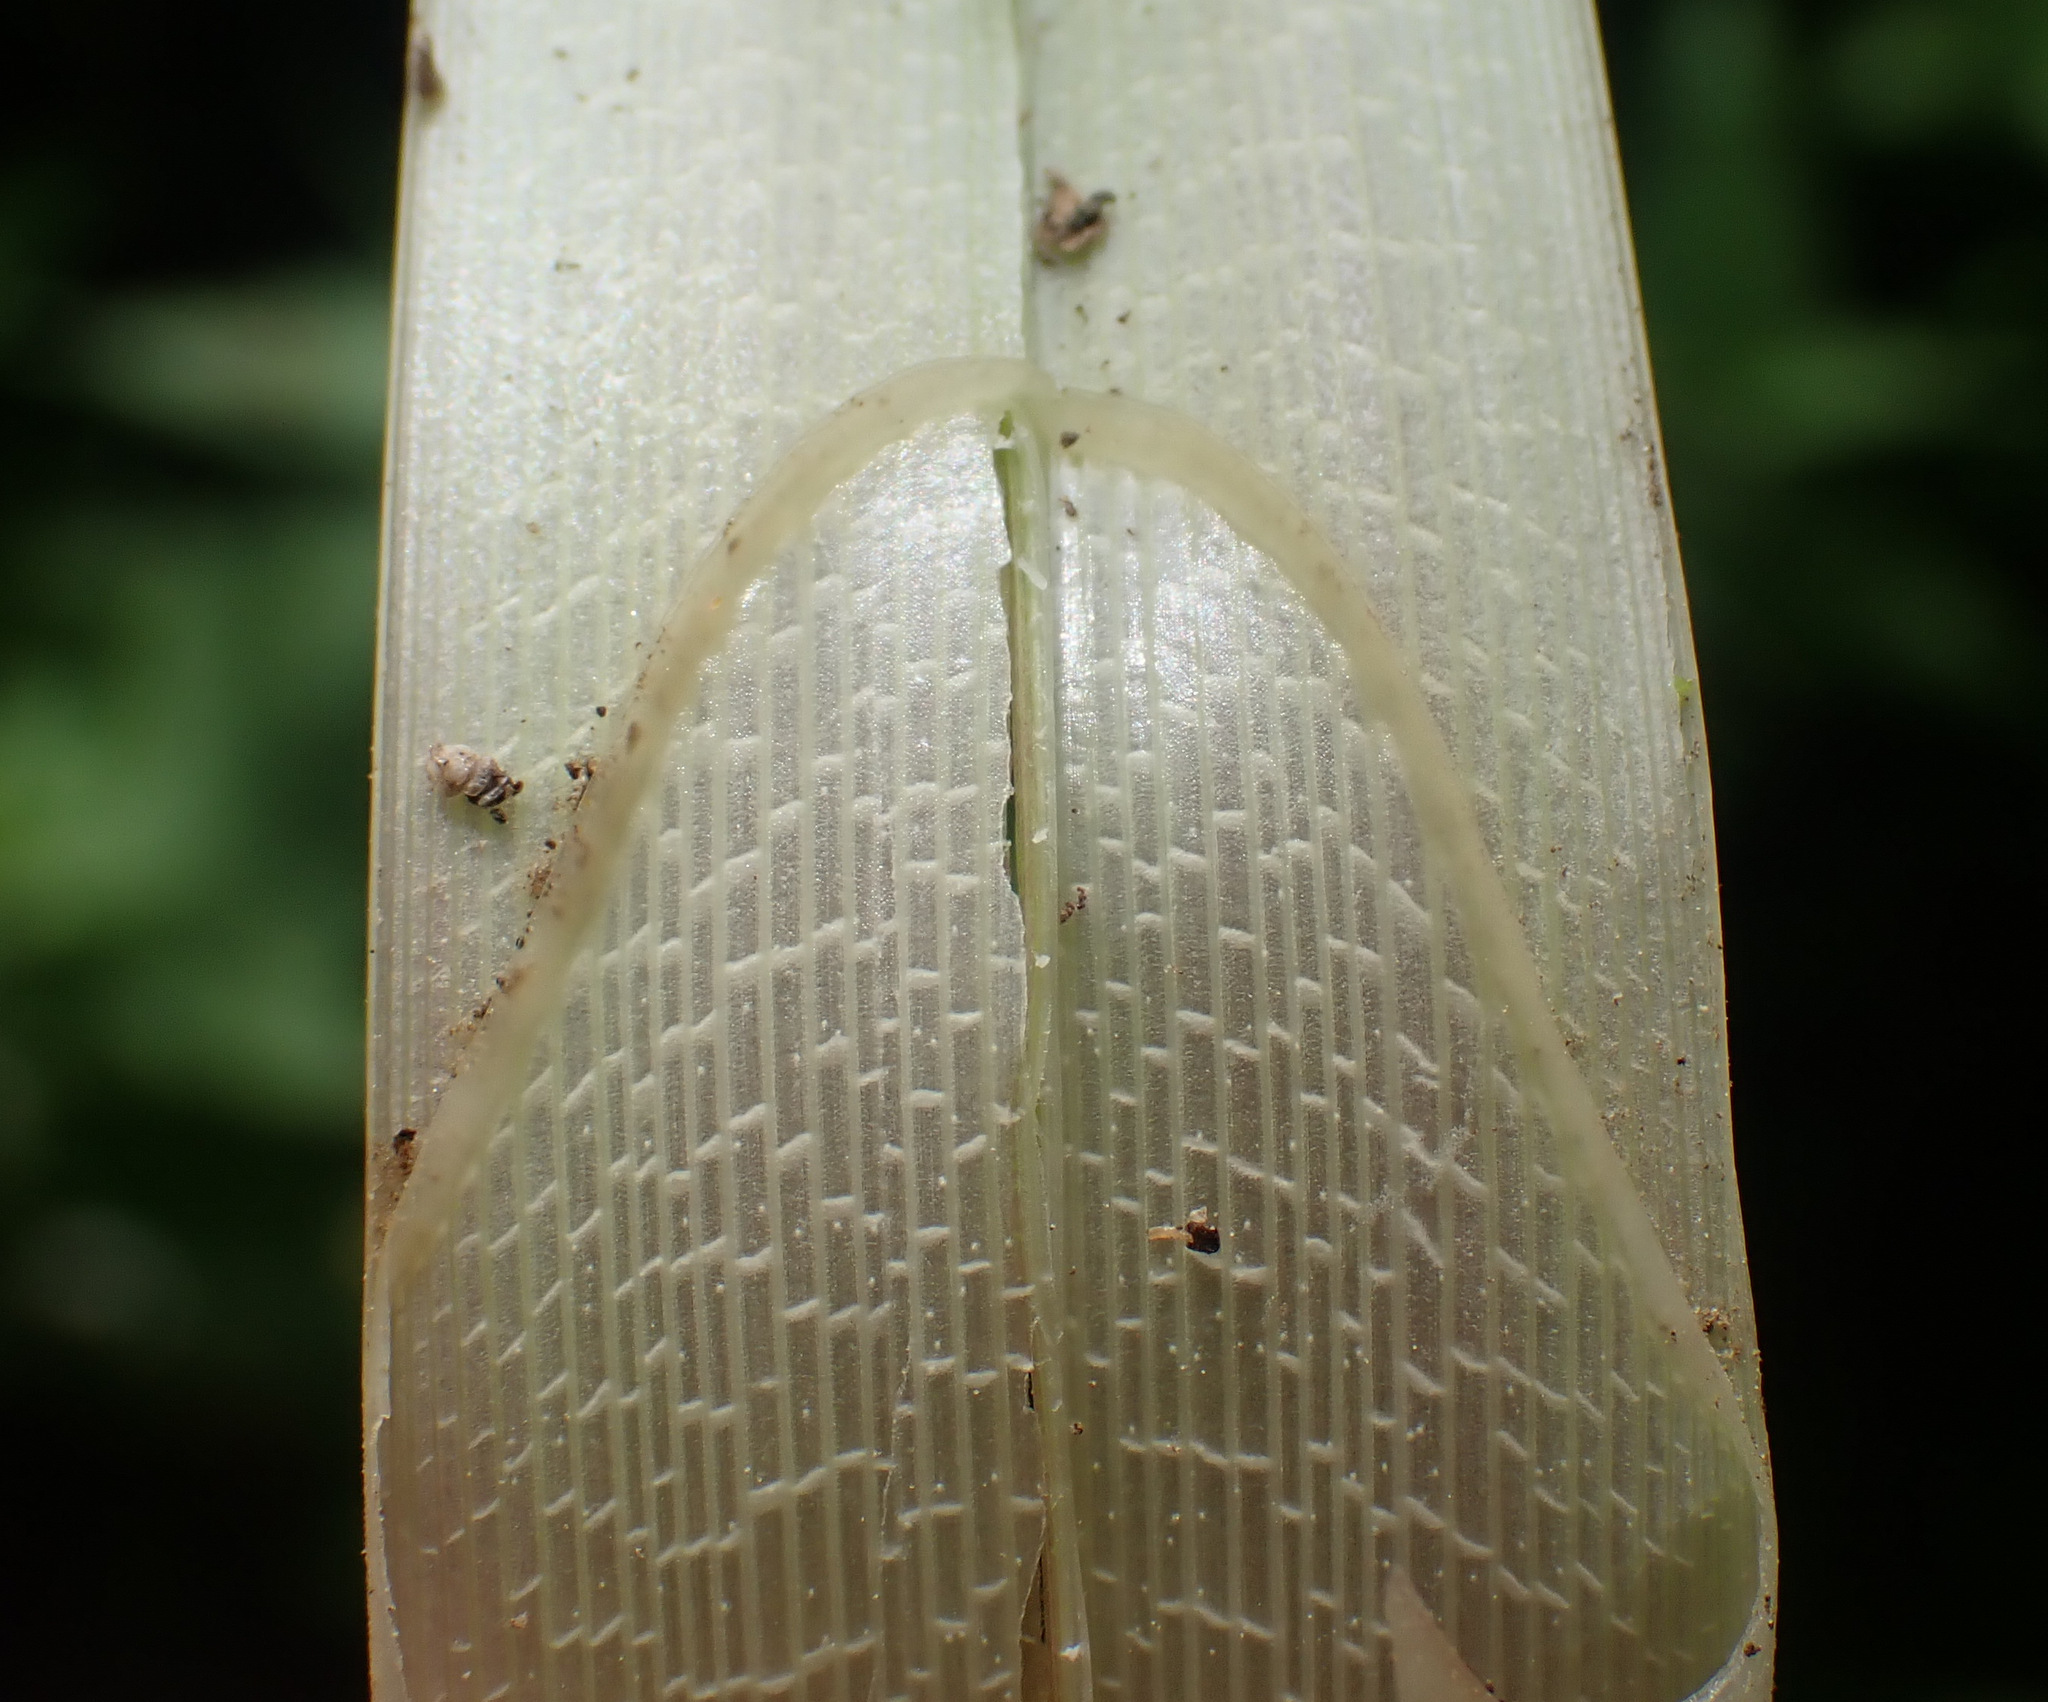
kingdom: Plantae
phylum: Tracheophyta
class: Liliopsida
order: Poales
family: Cyperaceae
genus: Carex
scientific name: Carex riparia
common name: Greater pond-sedge
